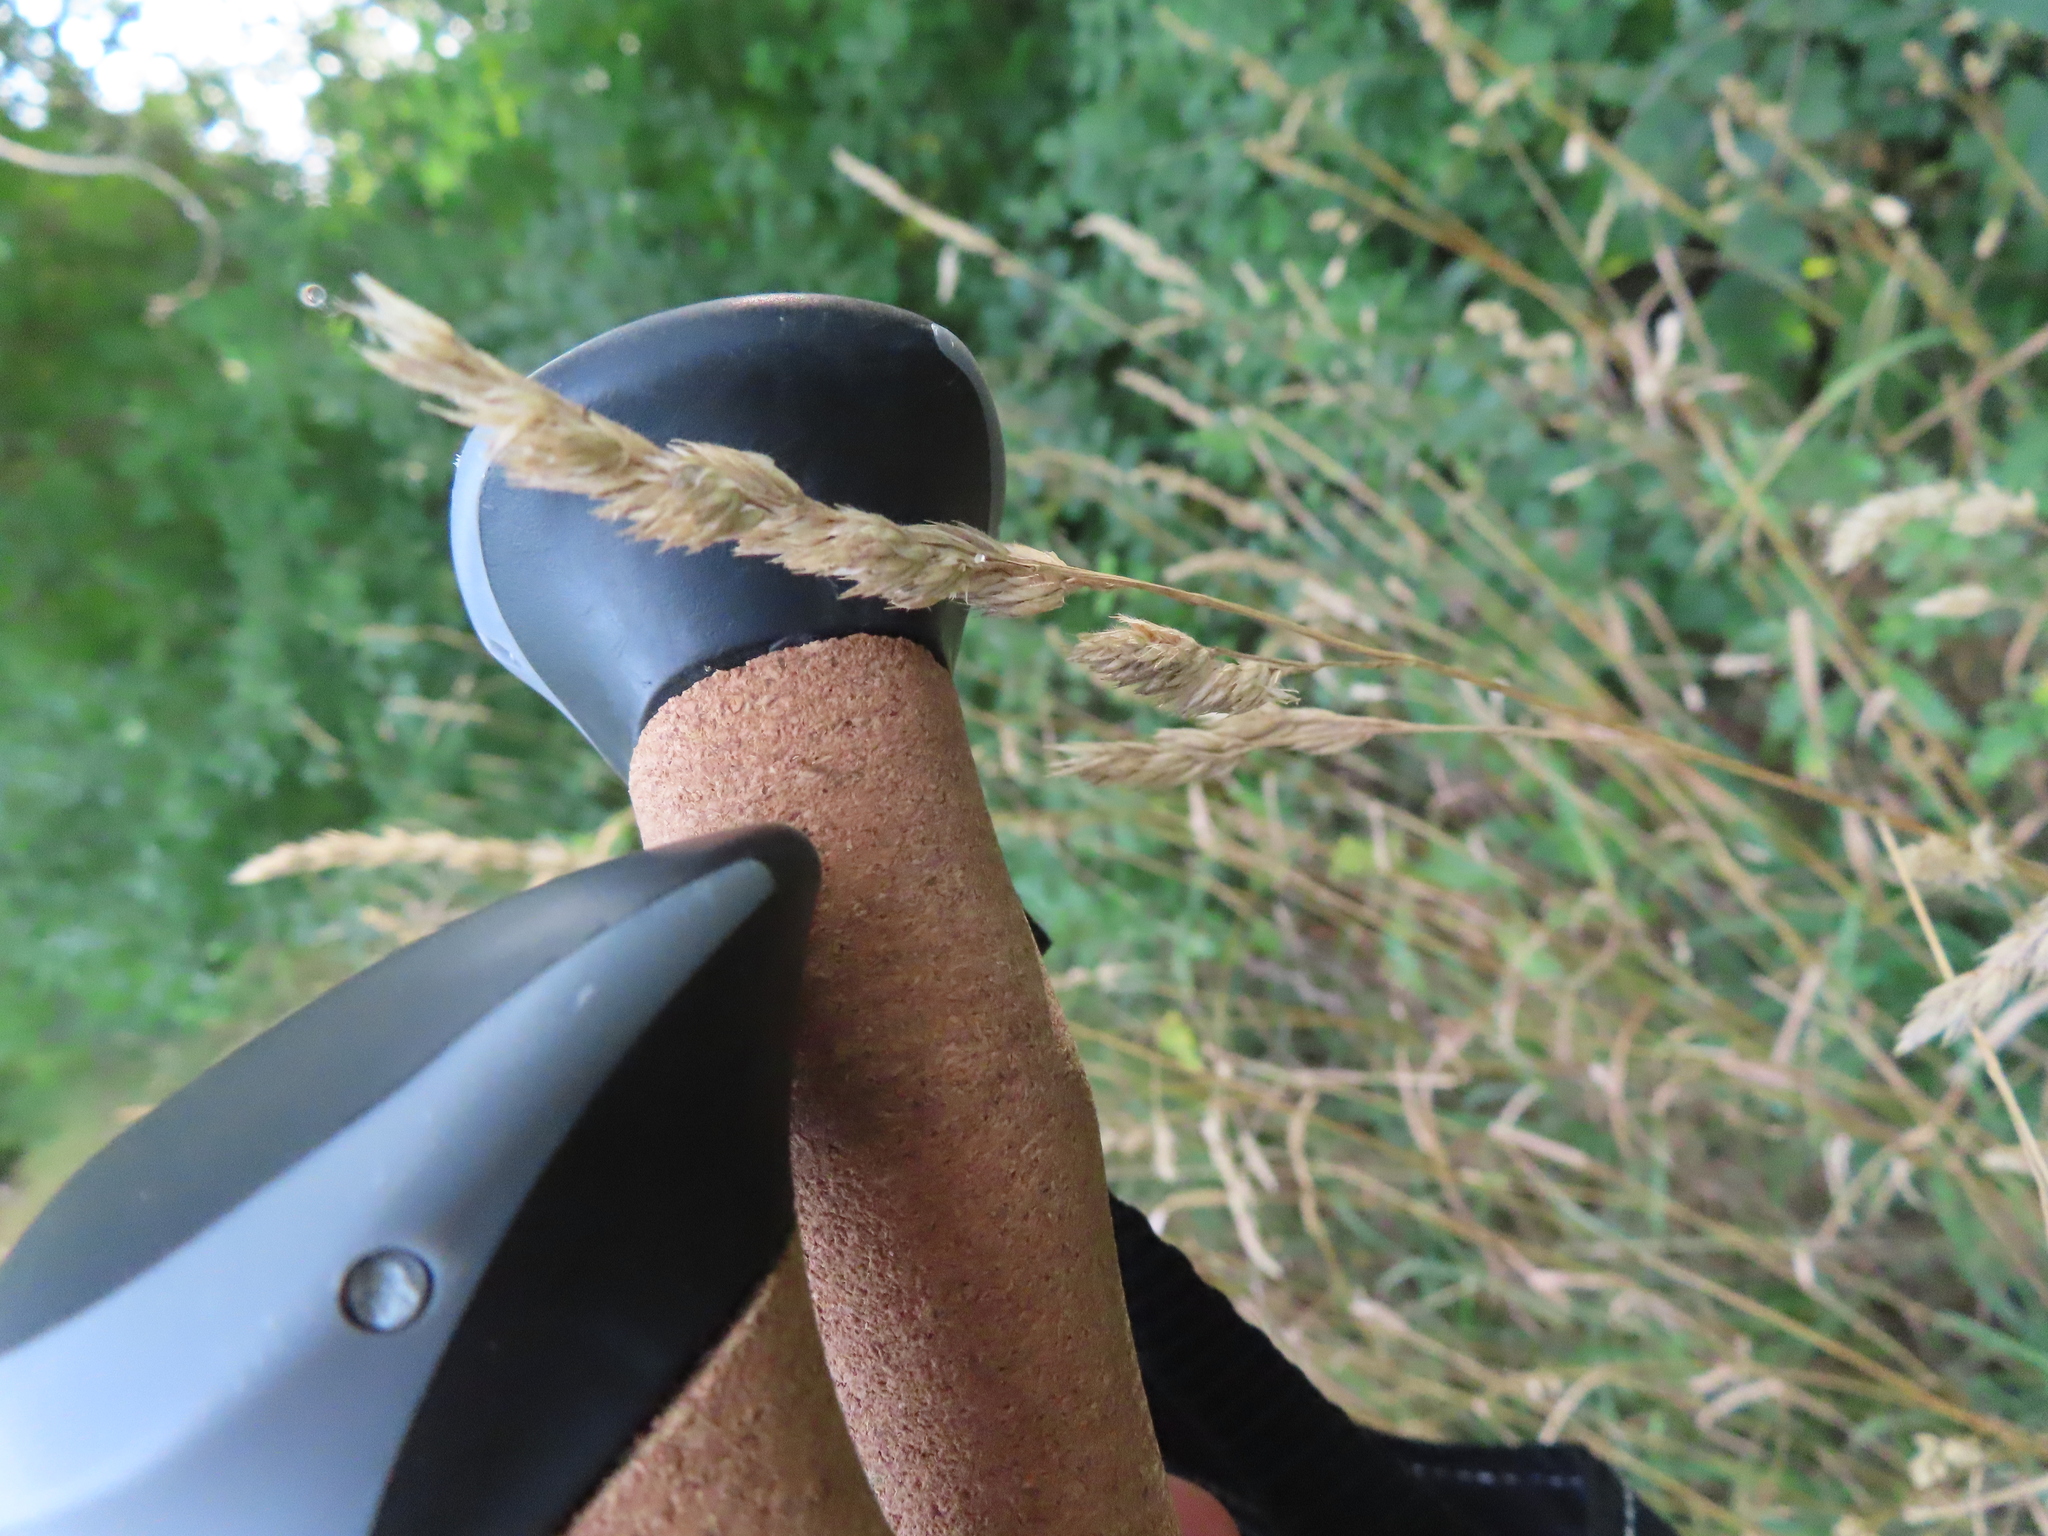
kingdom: Plantae
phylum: Tracheophyta
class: Liliopsida
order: Poales
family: Poaceae
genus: Dactylis
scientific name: Dactylis glomerata
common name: Orchardgrass
